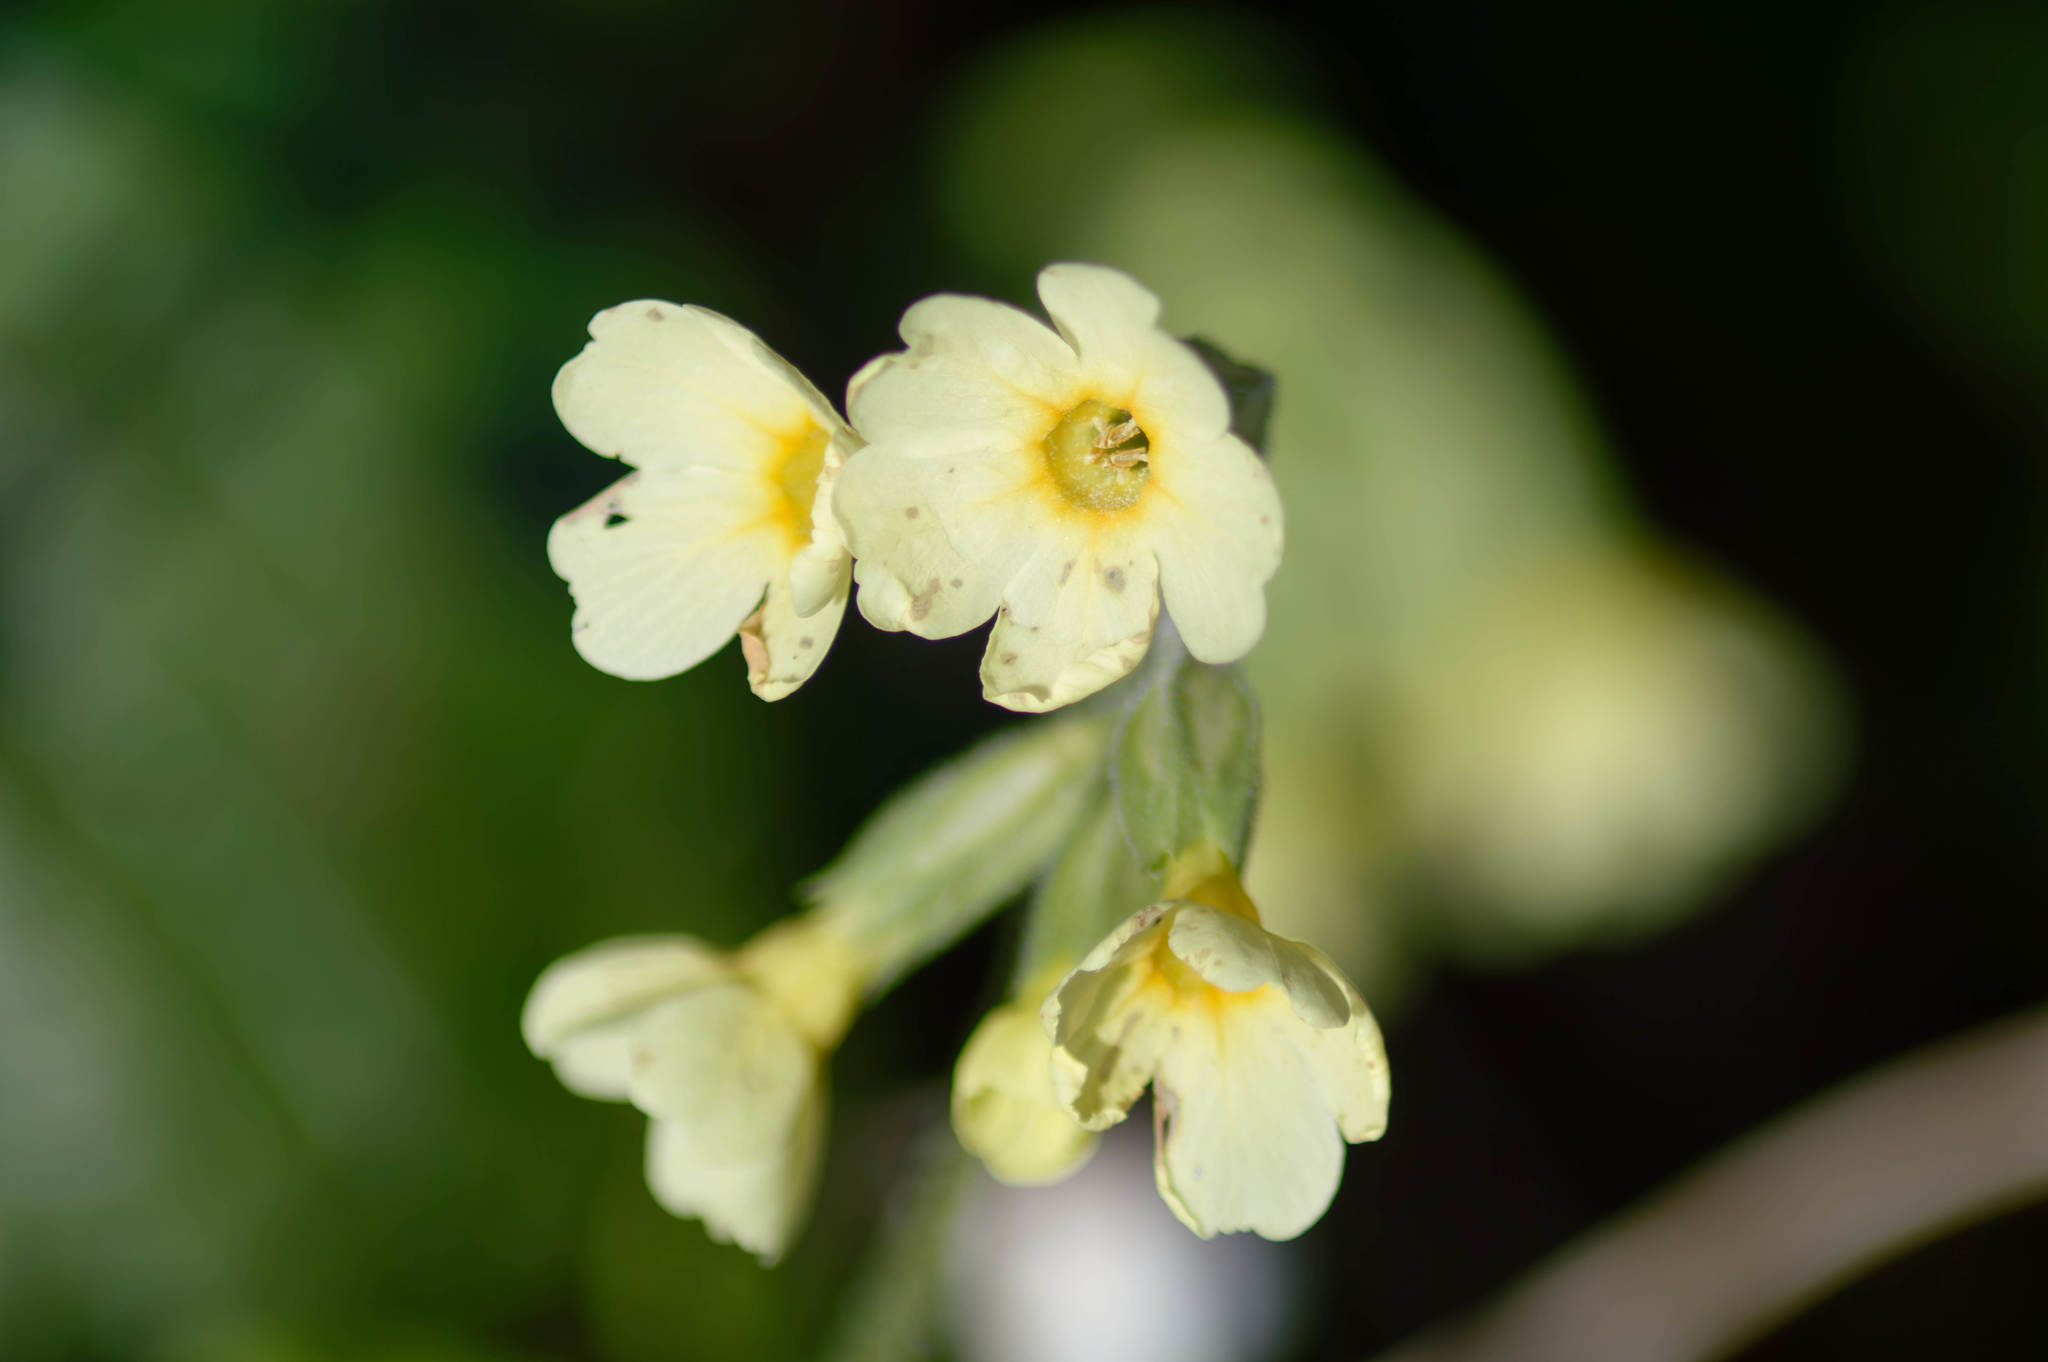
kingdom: Plantae
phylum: Tracheophyta
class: Magnoliopsida
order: Ericales
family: Primulaceae
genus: Primula
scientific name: Primula elatior
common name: Oxlip
